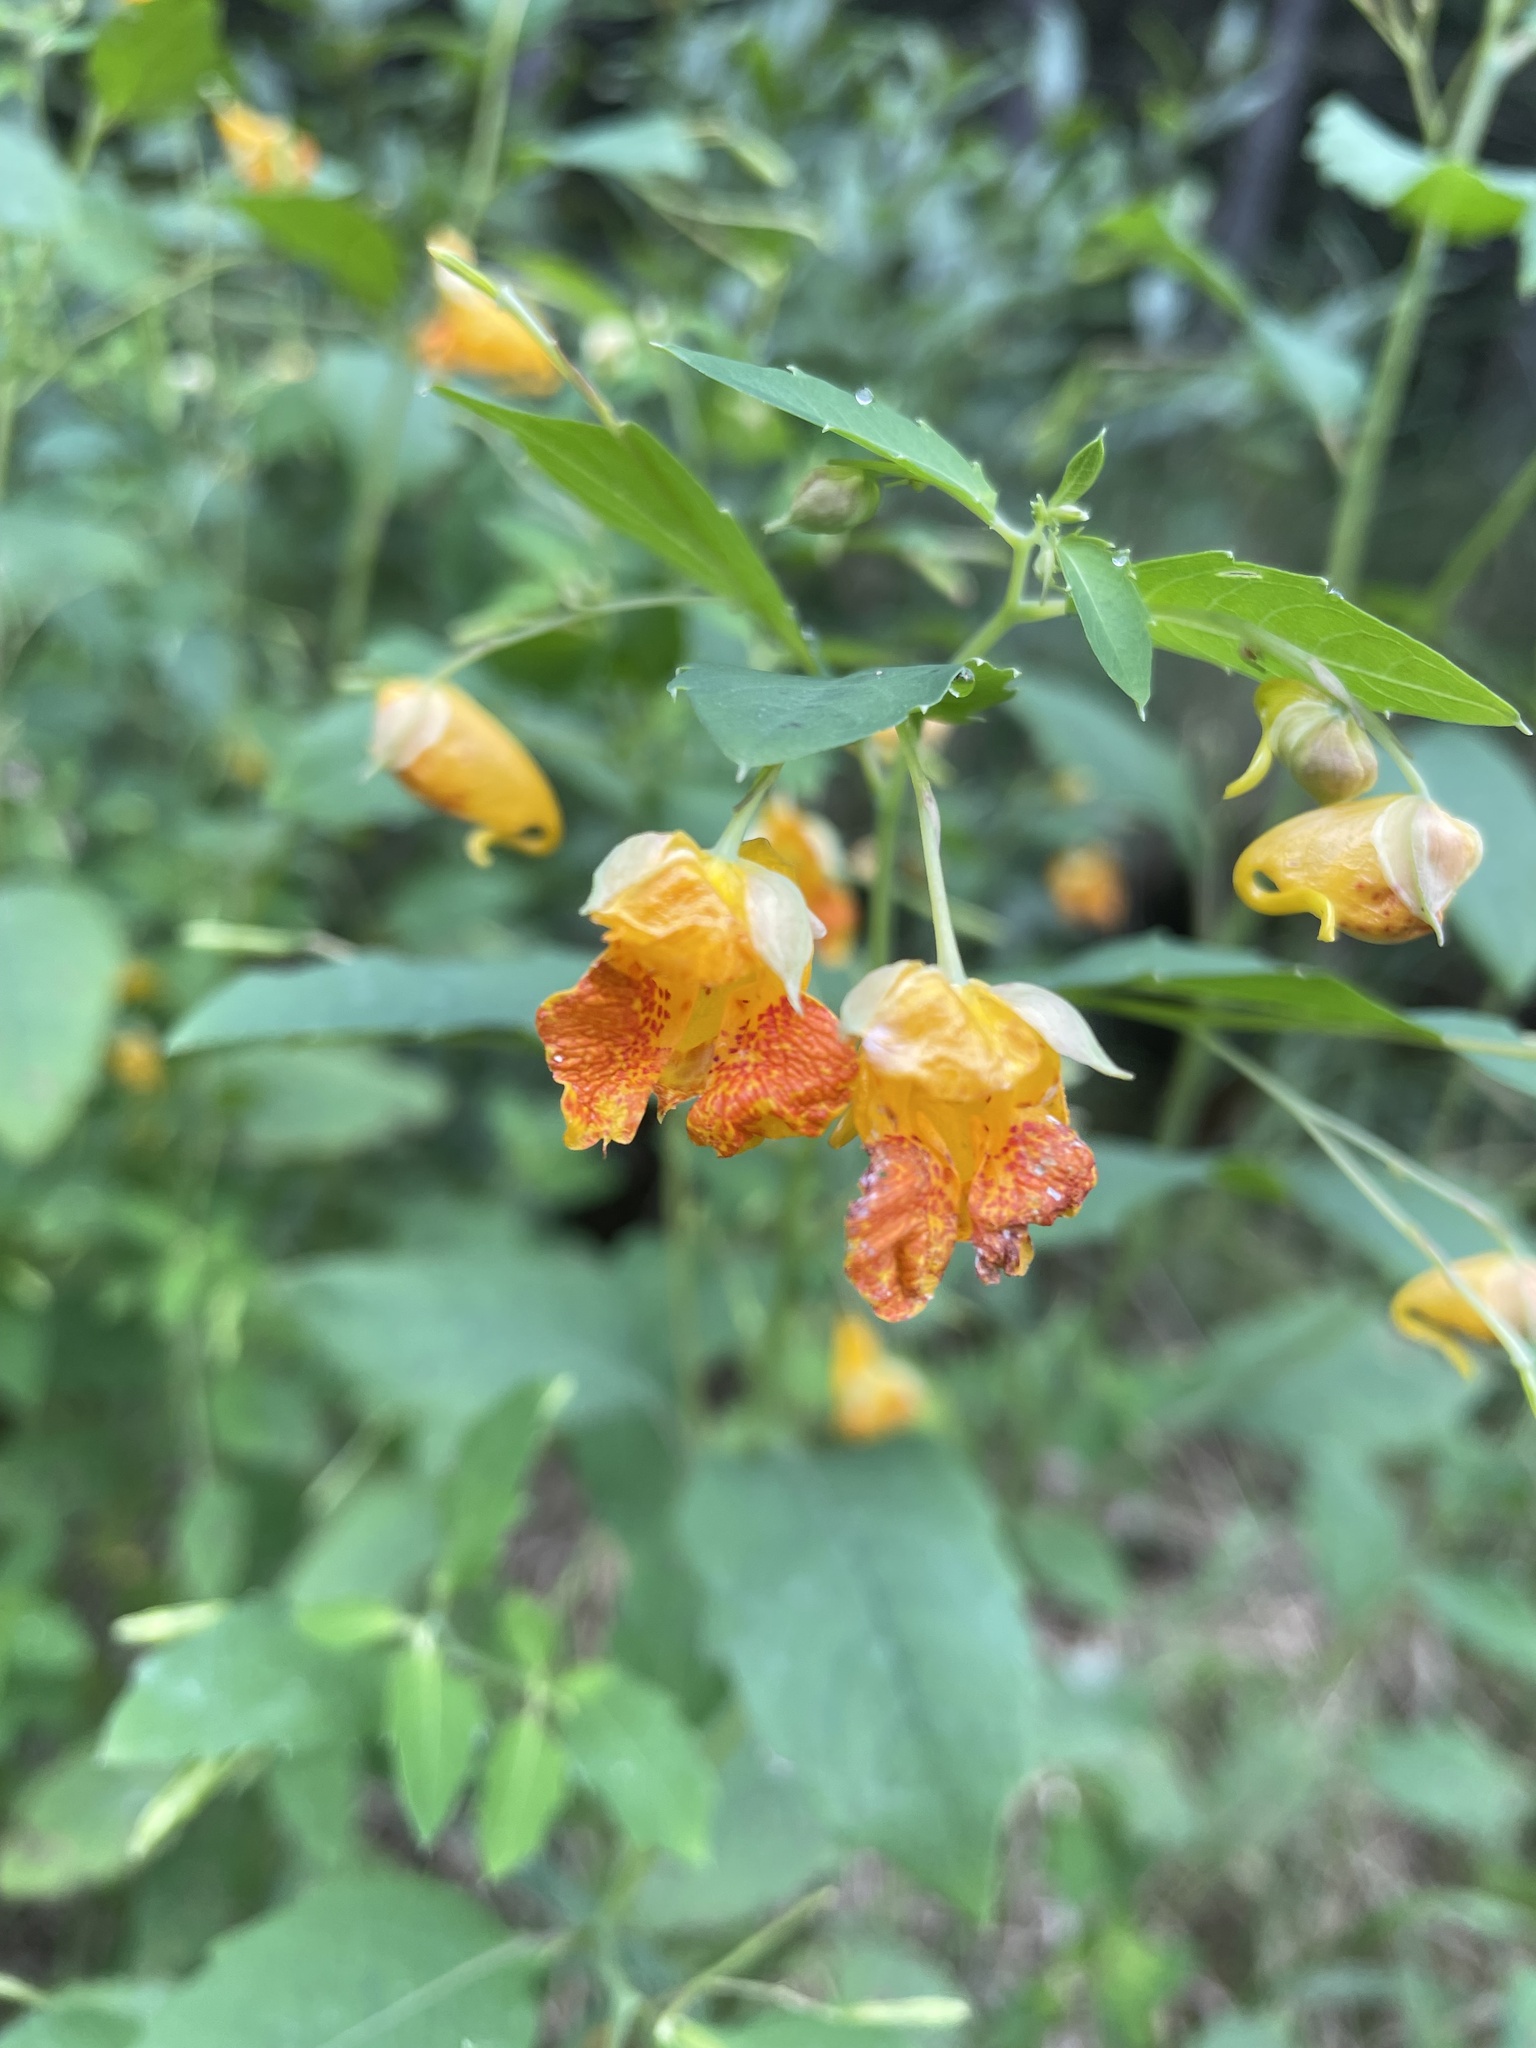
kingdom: Plantae
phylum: Tracheophyta
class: Magnoliopsida
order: Ericales
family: Balsaminaceae
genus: Impatiens
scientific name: Impatiens capensis
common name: Orange balsam
